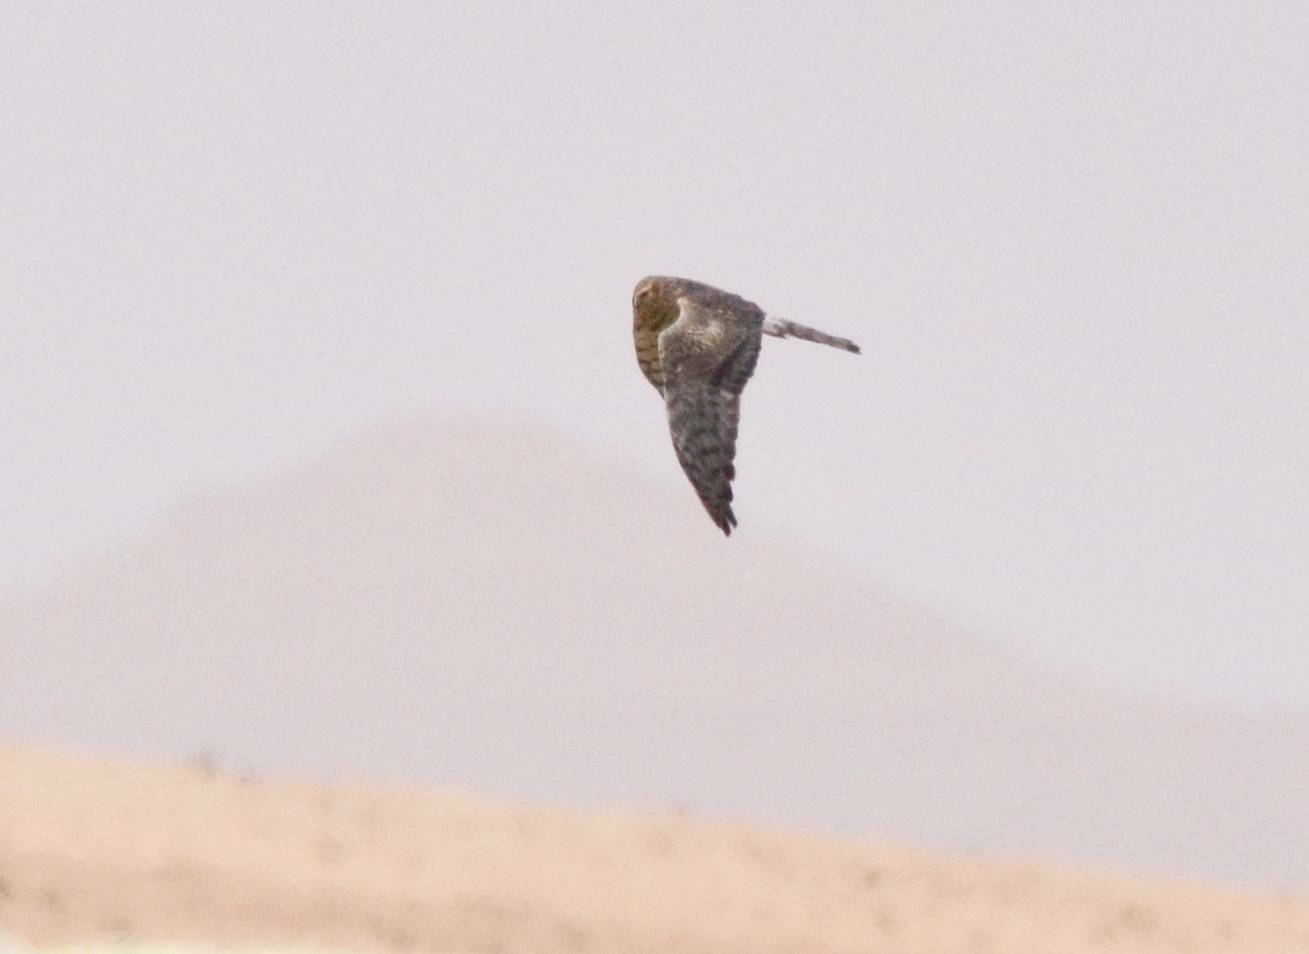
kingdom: Animalia
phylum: Chordata
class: Aves
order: Accipitriformes
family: Accipitridae
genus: Circus
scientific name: Circus pygargus
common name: Montagu's harrier
